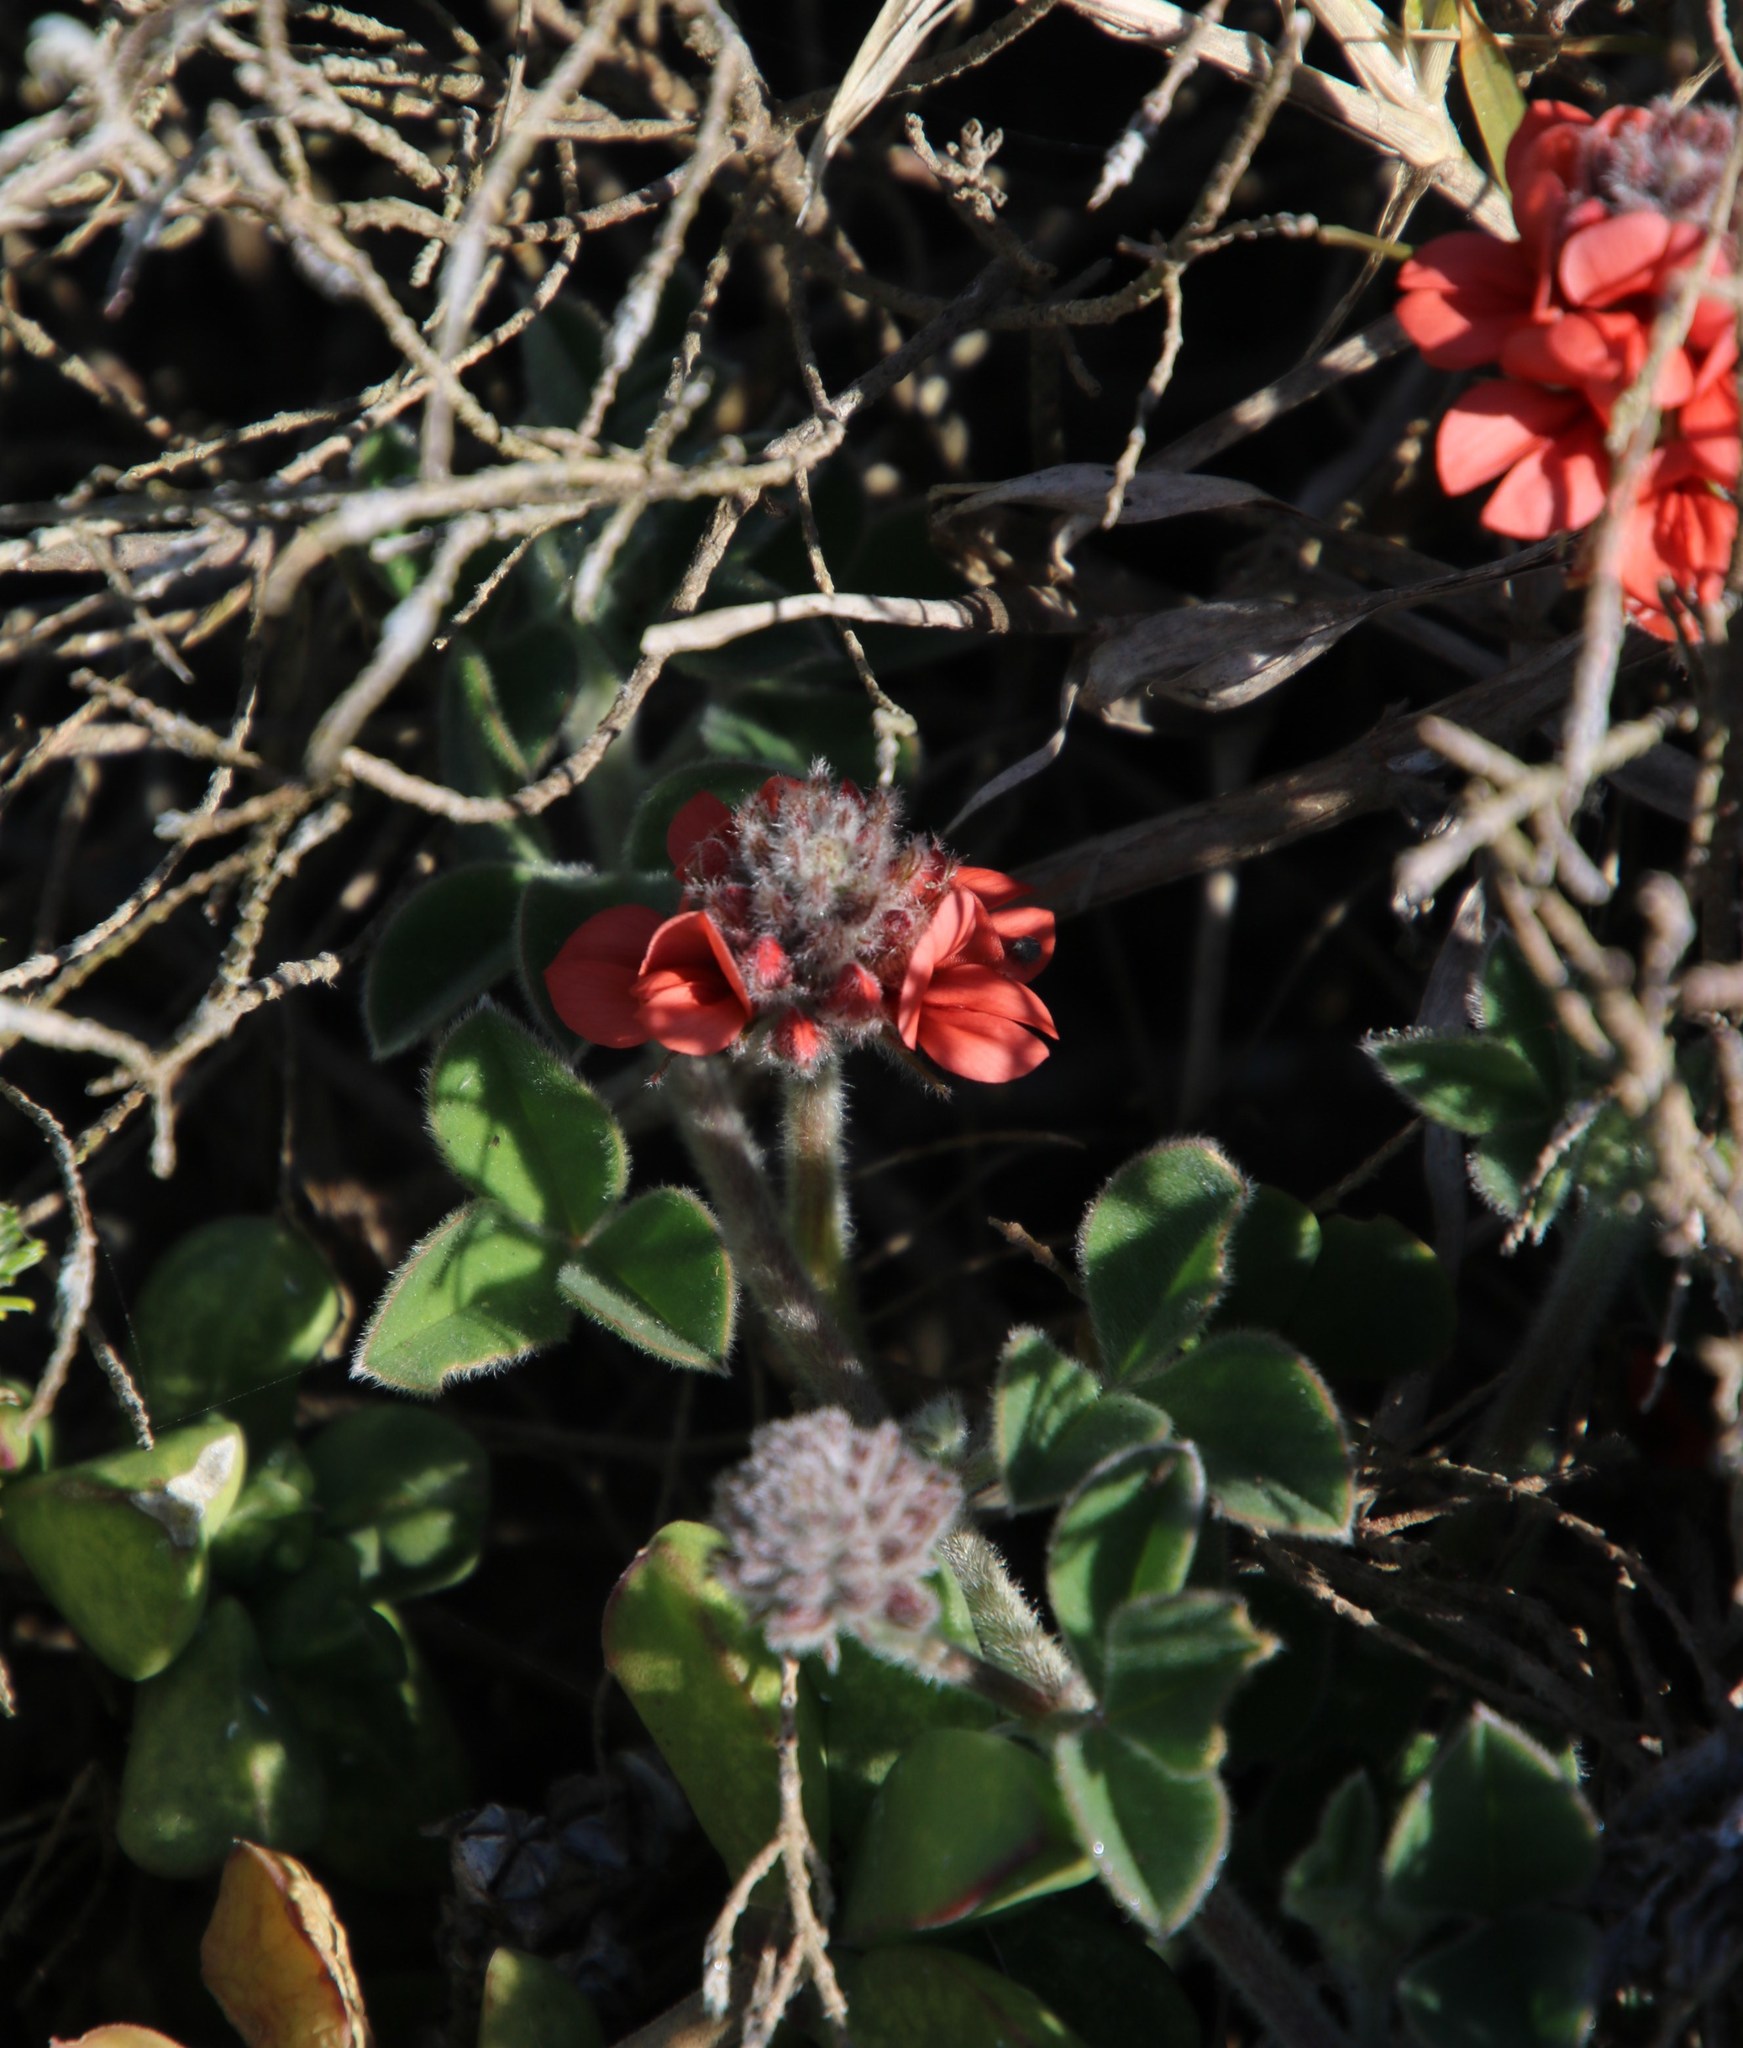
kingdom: Plantae
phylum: Tracheophyta
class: Magnoliopsida
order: Fabales
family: Fabaceae
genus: Indigofera
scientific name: Indigofera tomentosa
